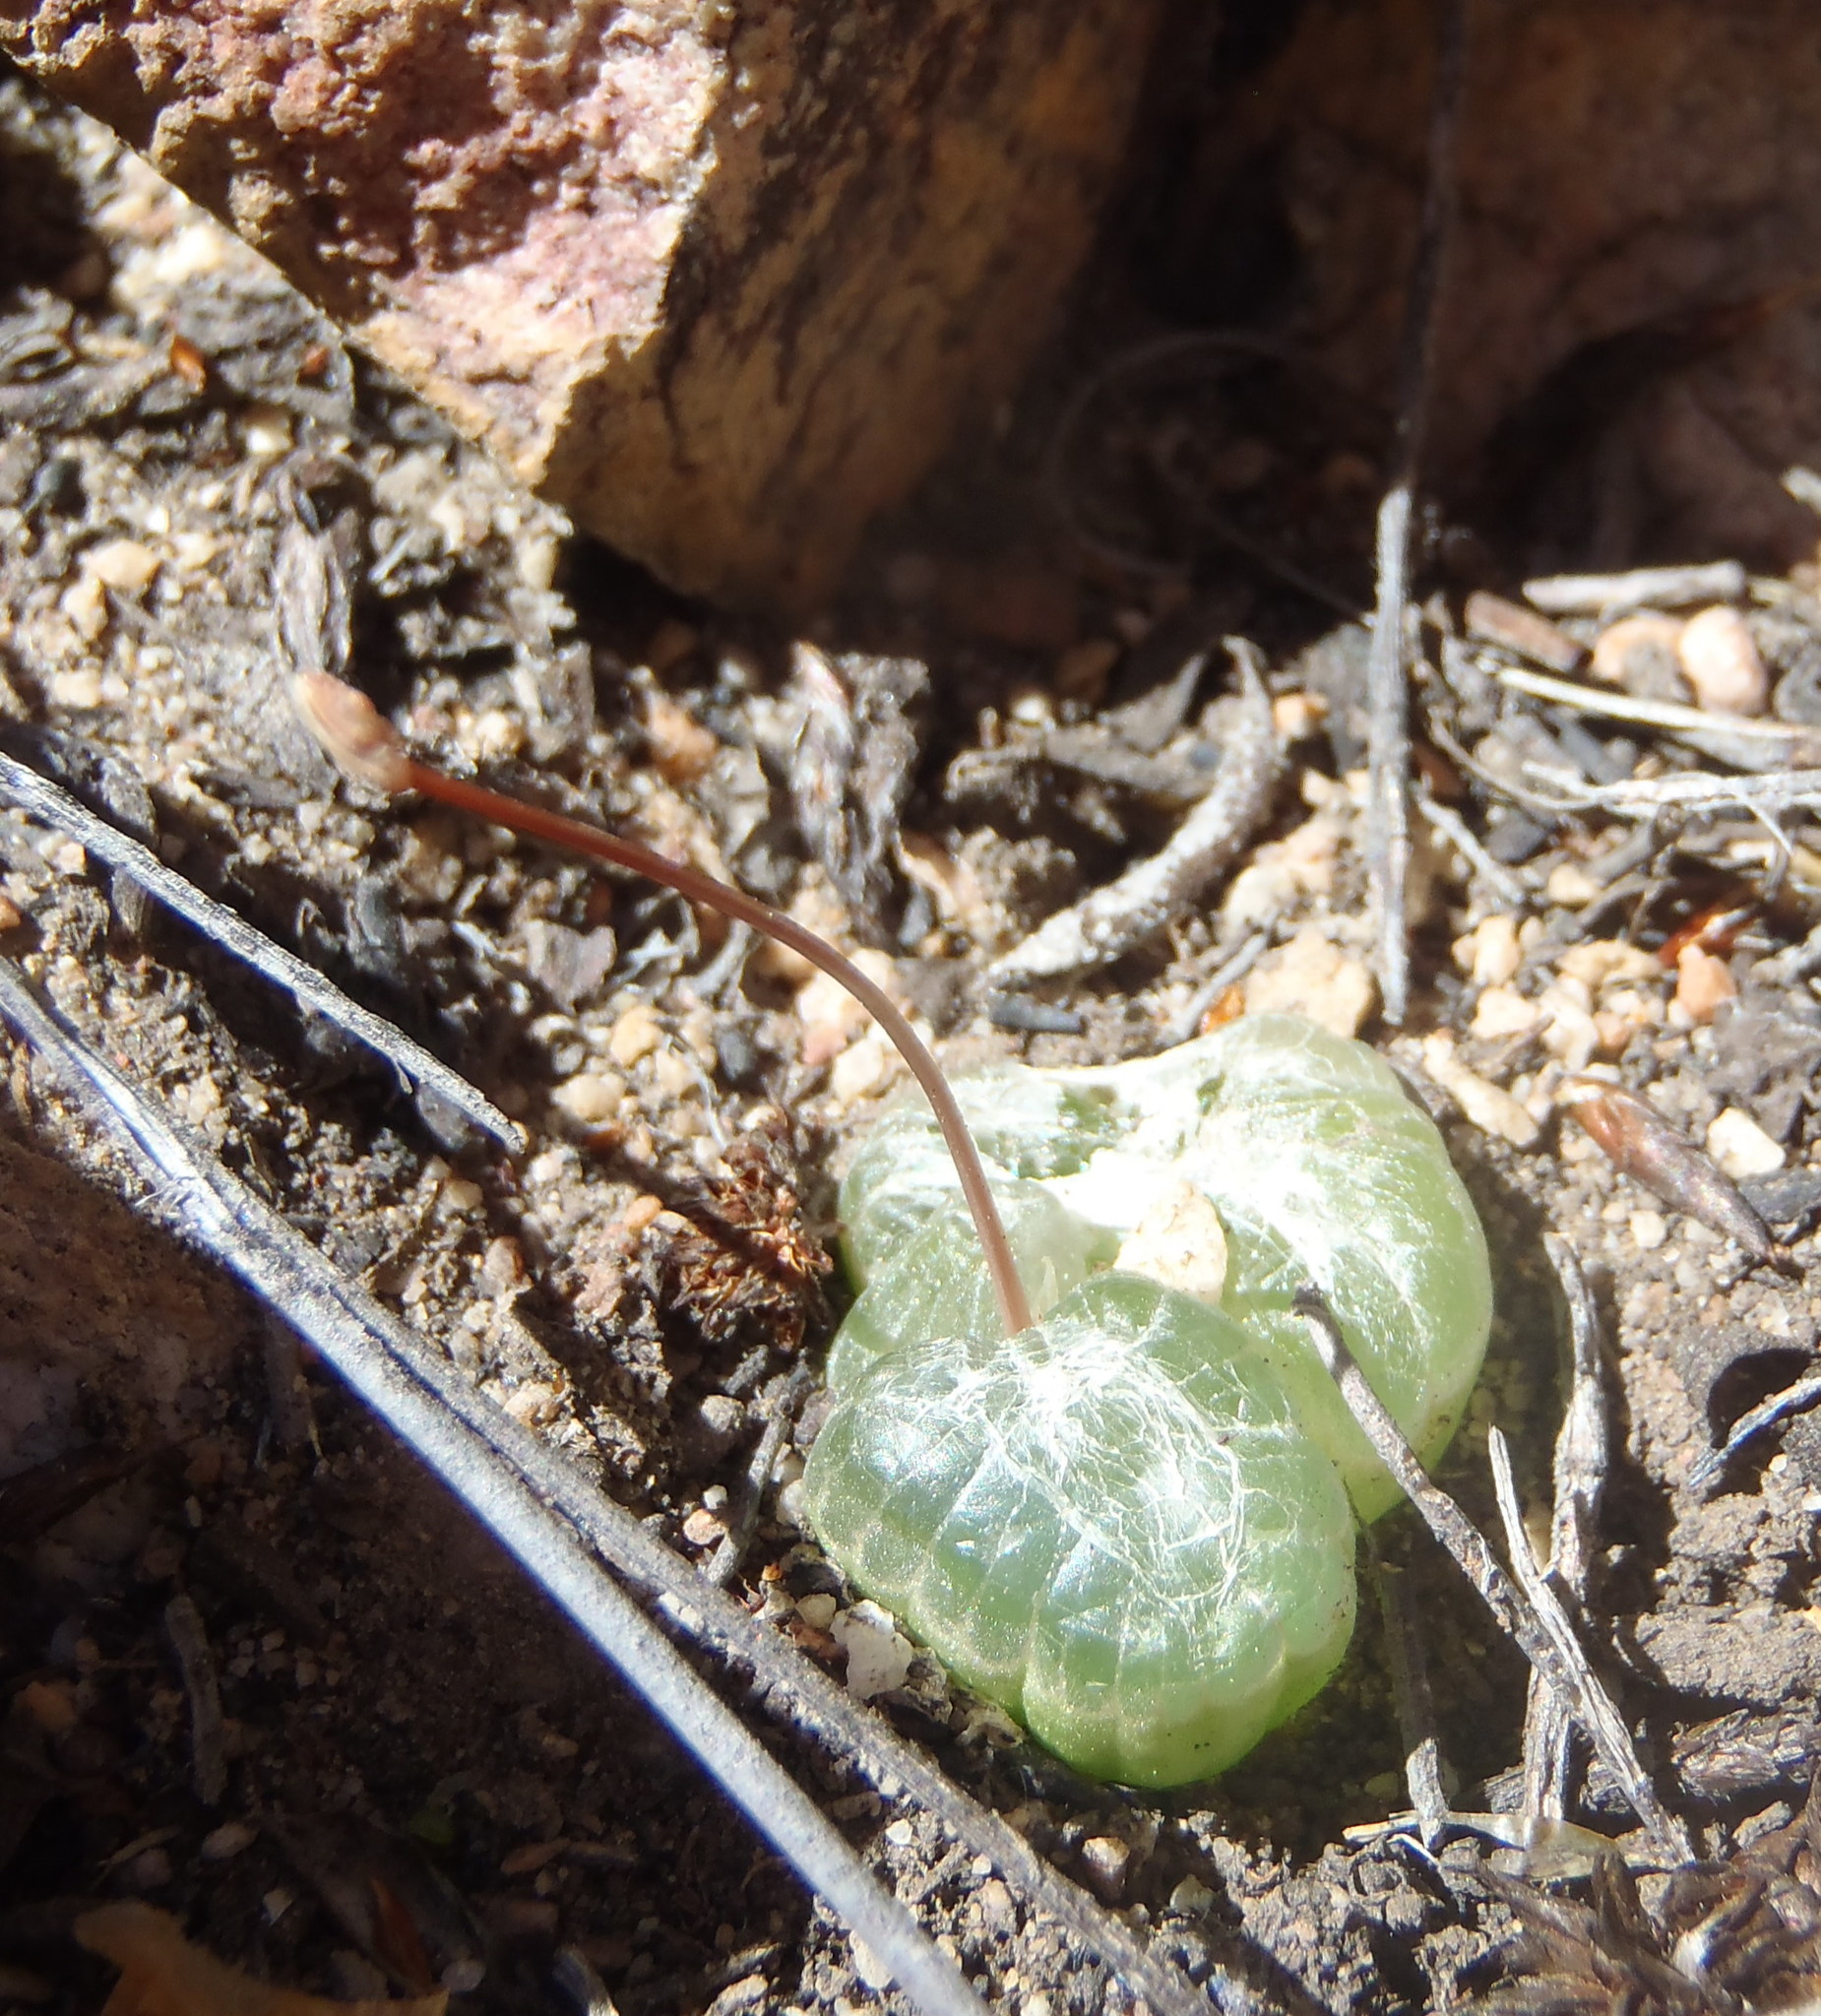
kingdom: Plantae
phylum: Tracheophyta
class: Liliopsida
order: Asparagales
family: Asphodelaceae
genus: Bulbine
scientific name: Bulbine mesembryanthoides
